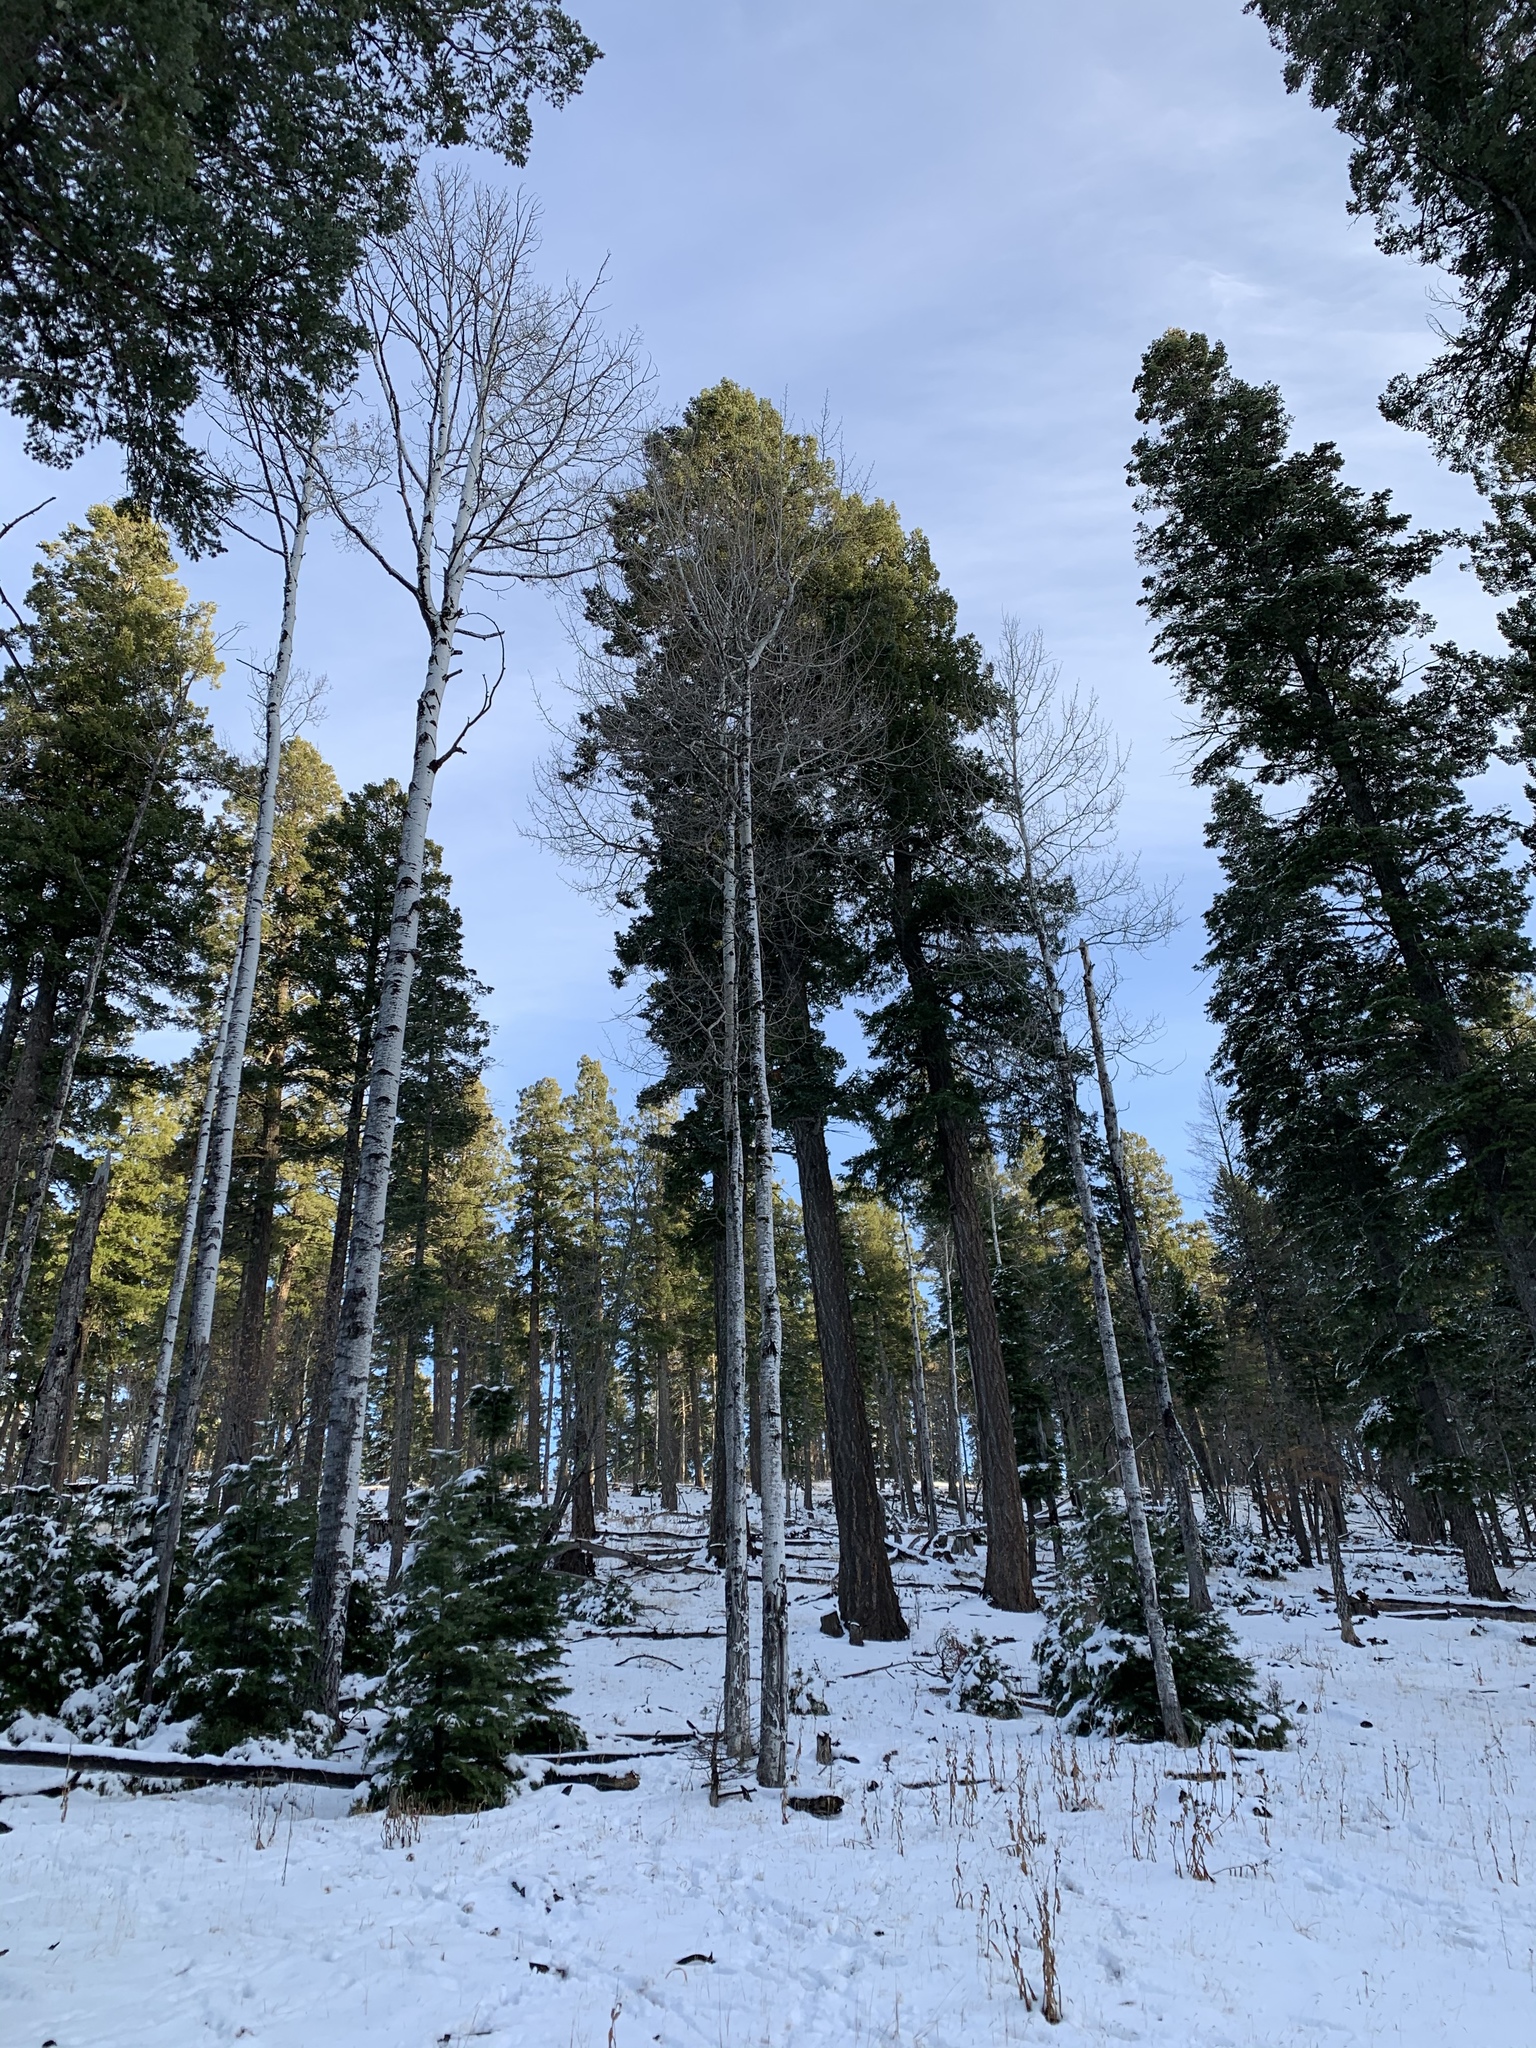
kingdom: Plantae
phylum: Tracheophyta
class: Magnoliopsida
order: Malpighiales
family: Salicaceae
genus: Populus
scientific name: Populus tremuloides
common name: Quaking aspen
